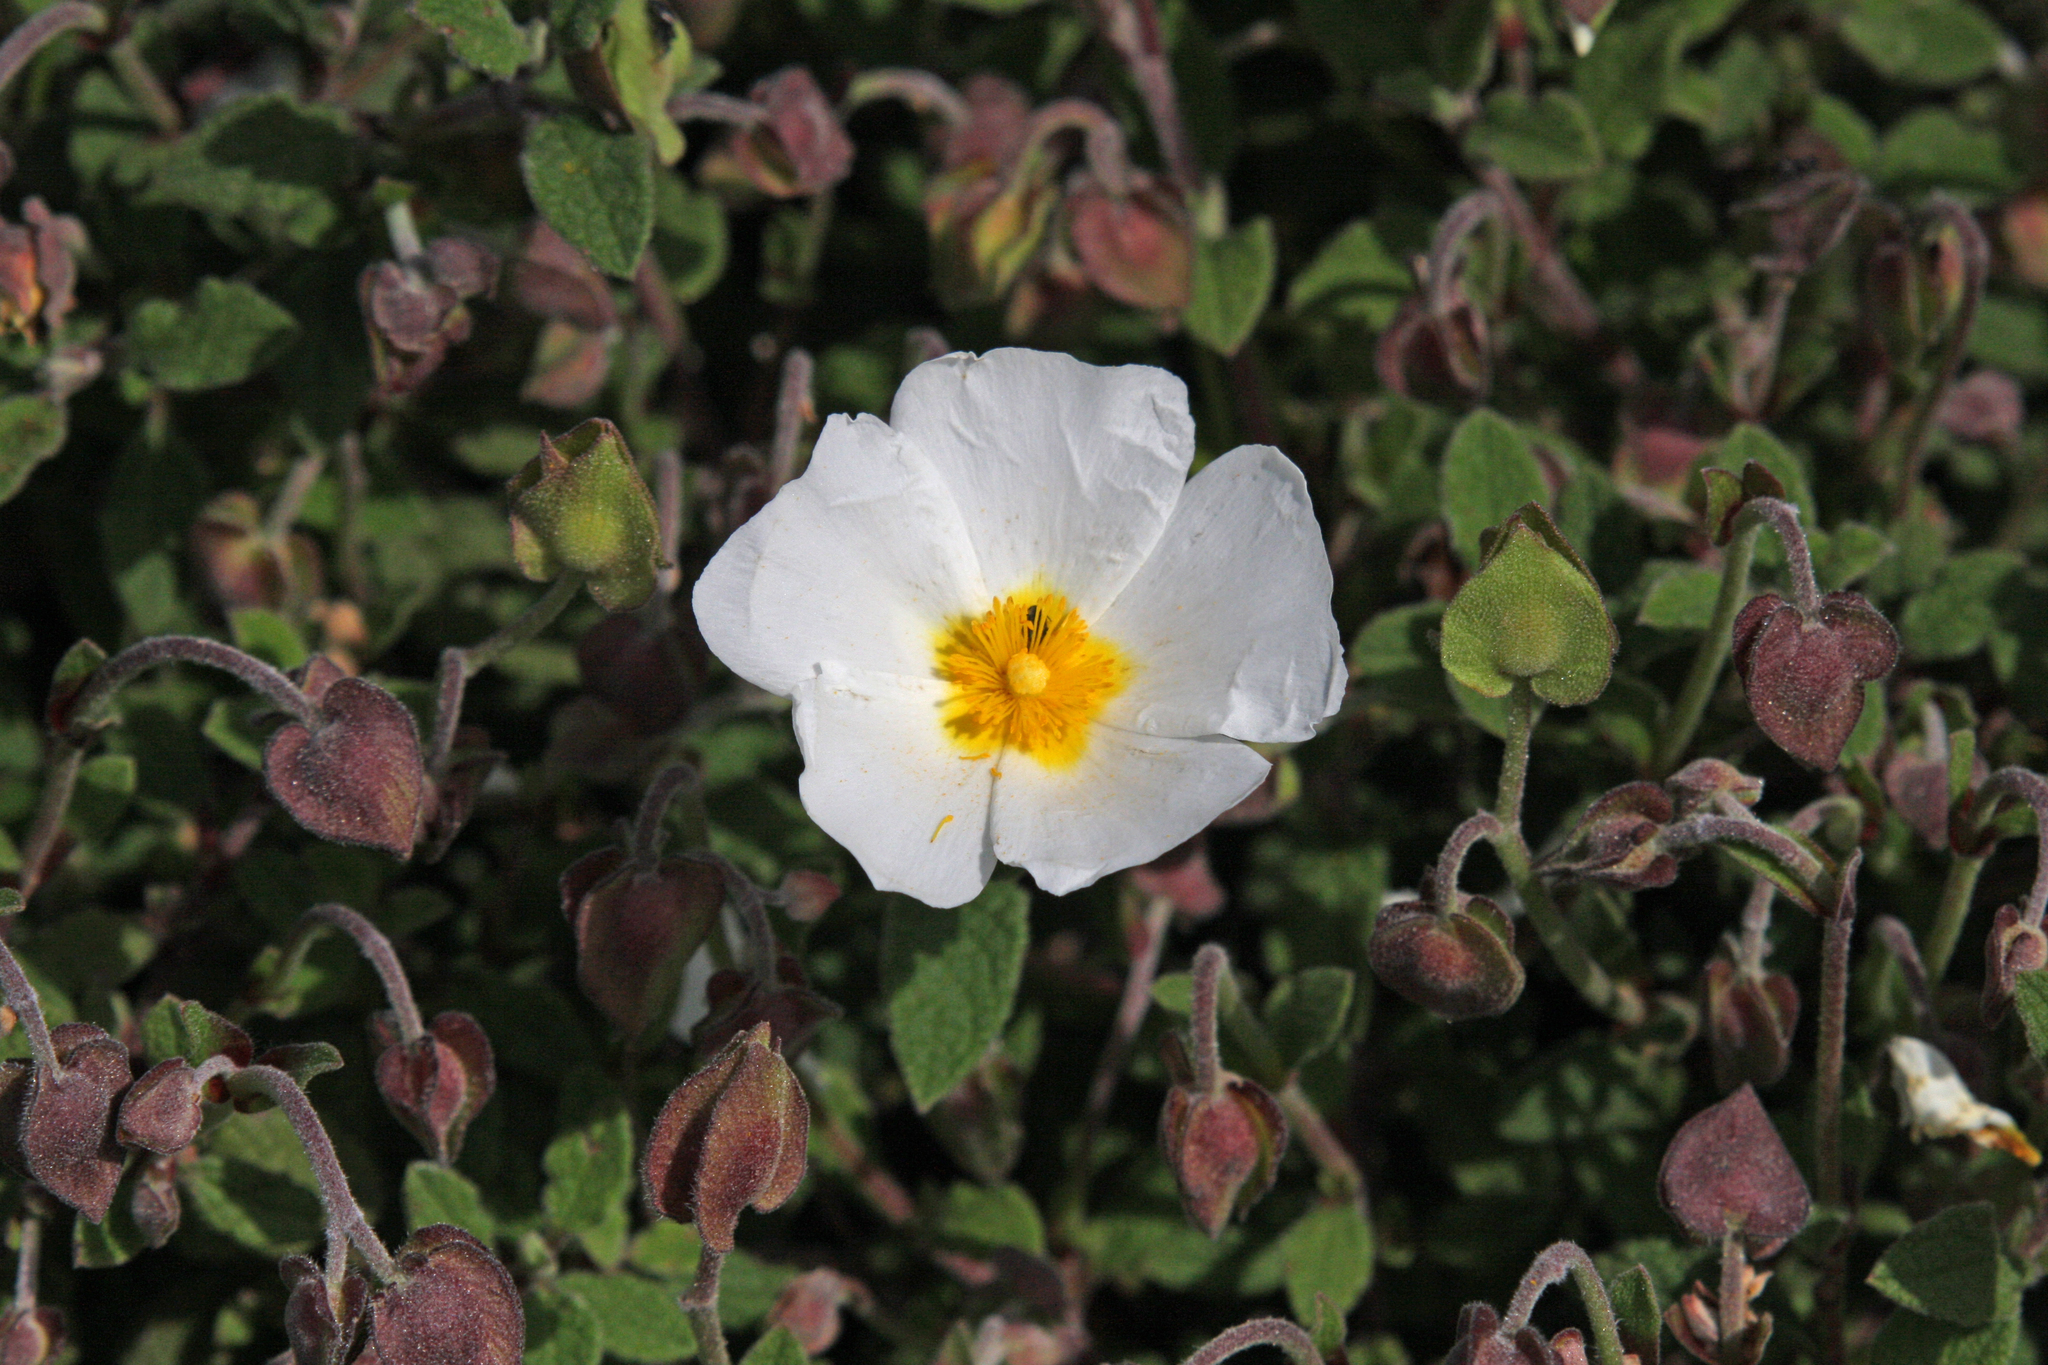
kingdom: Plantae
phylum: Tracheophyta
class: Magnoliopsida
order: Malvales
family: Cistaceae
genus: Cistus
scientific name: Cistus salviifolius
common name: Salvia cistus
